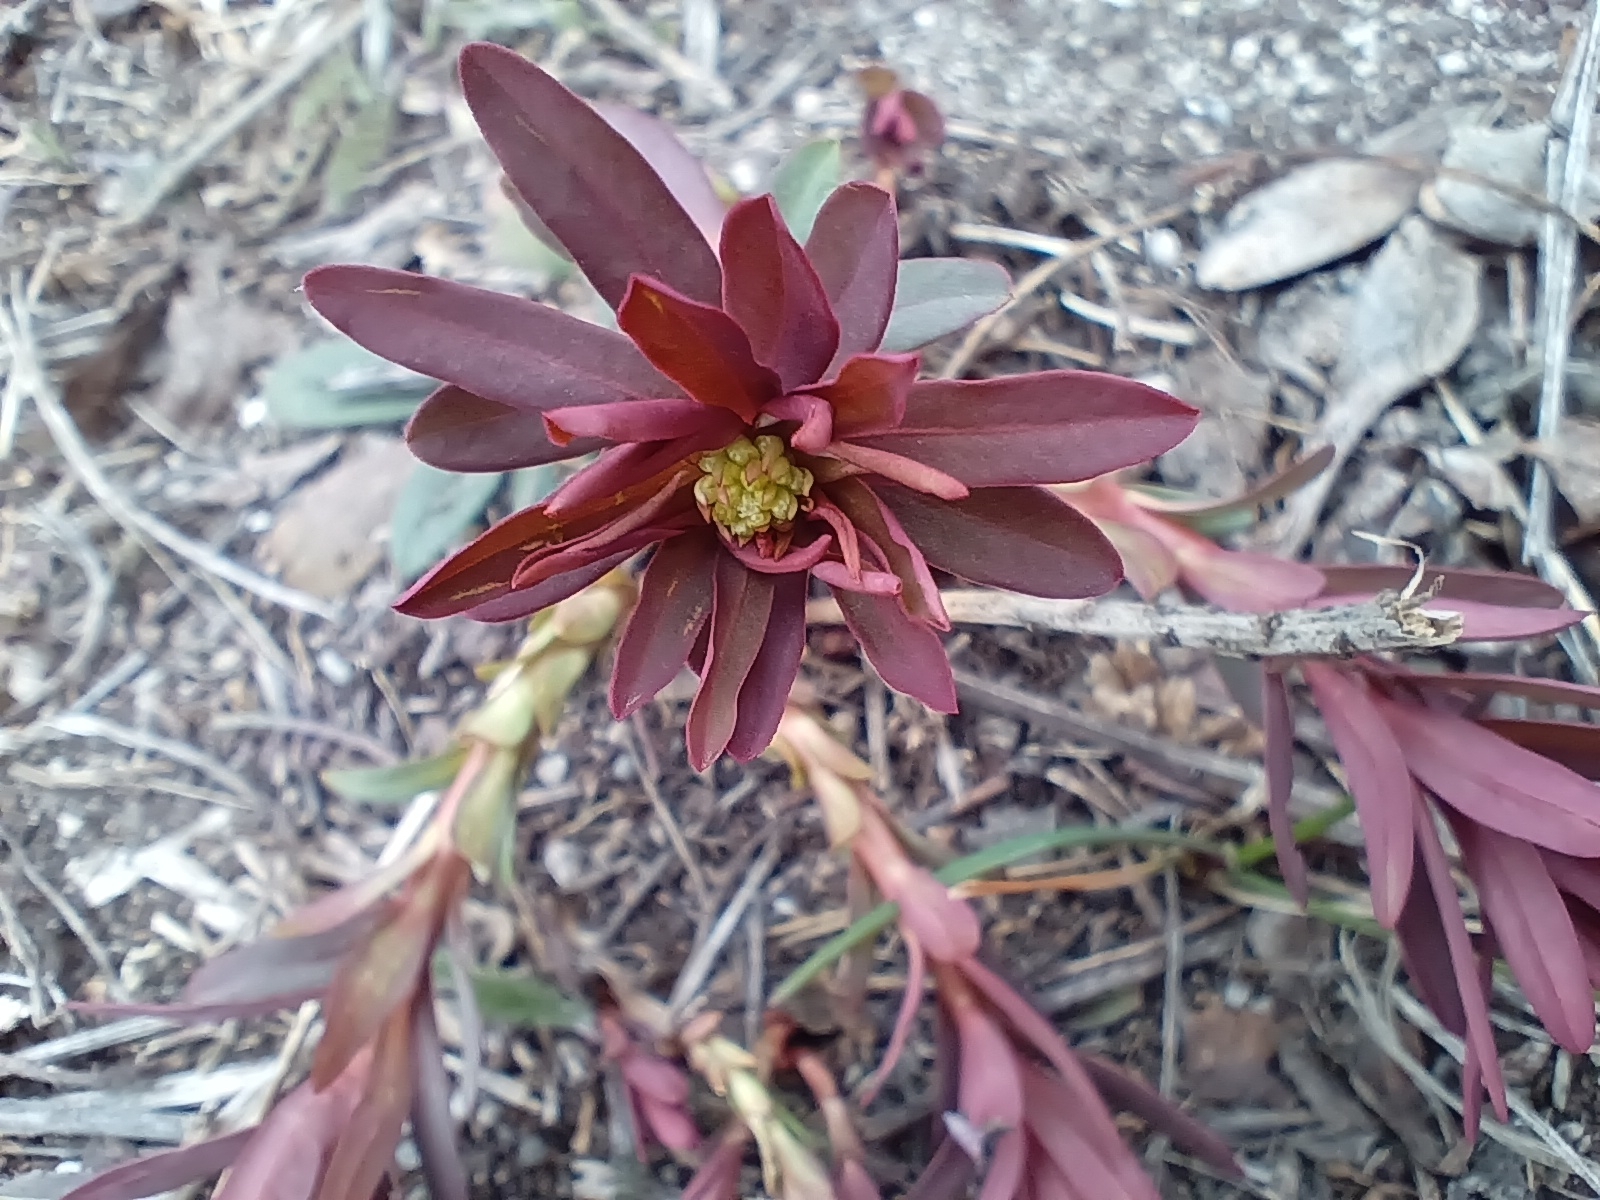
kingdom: Plantae
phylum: Tracheophyta
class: Magnoliopsida
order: Malpighiales
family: Euphorbiaceae
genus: Euphorbia
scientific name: Euphorbia amygdaloides
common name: Wood spurge
